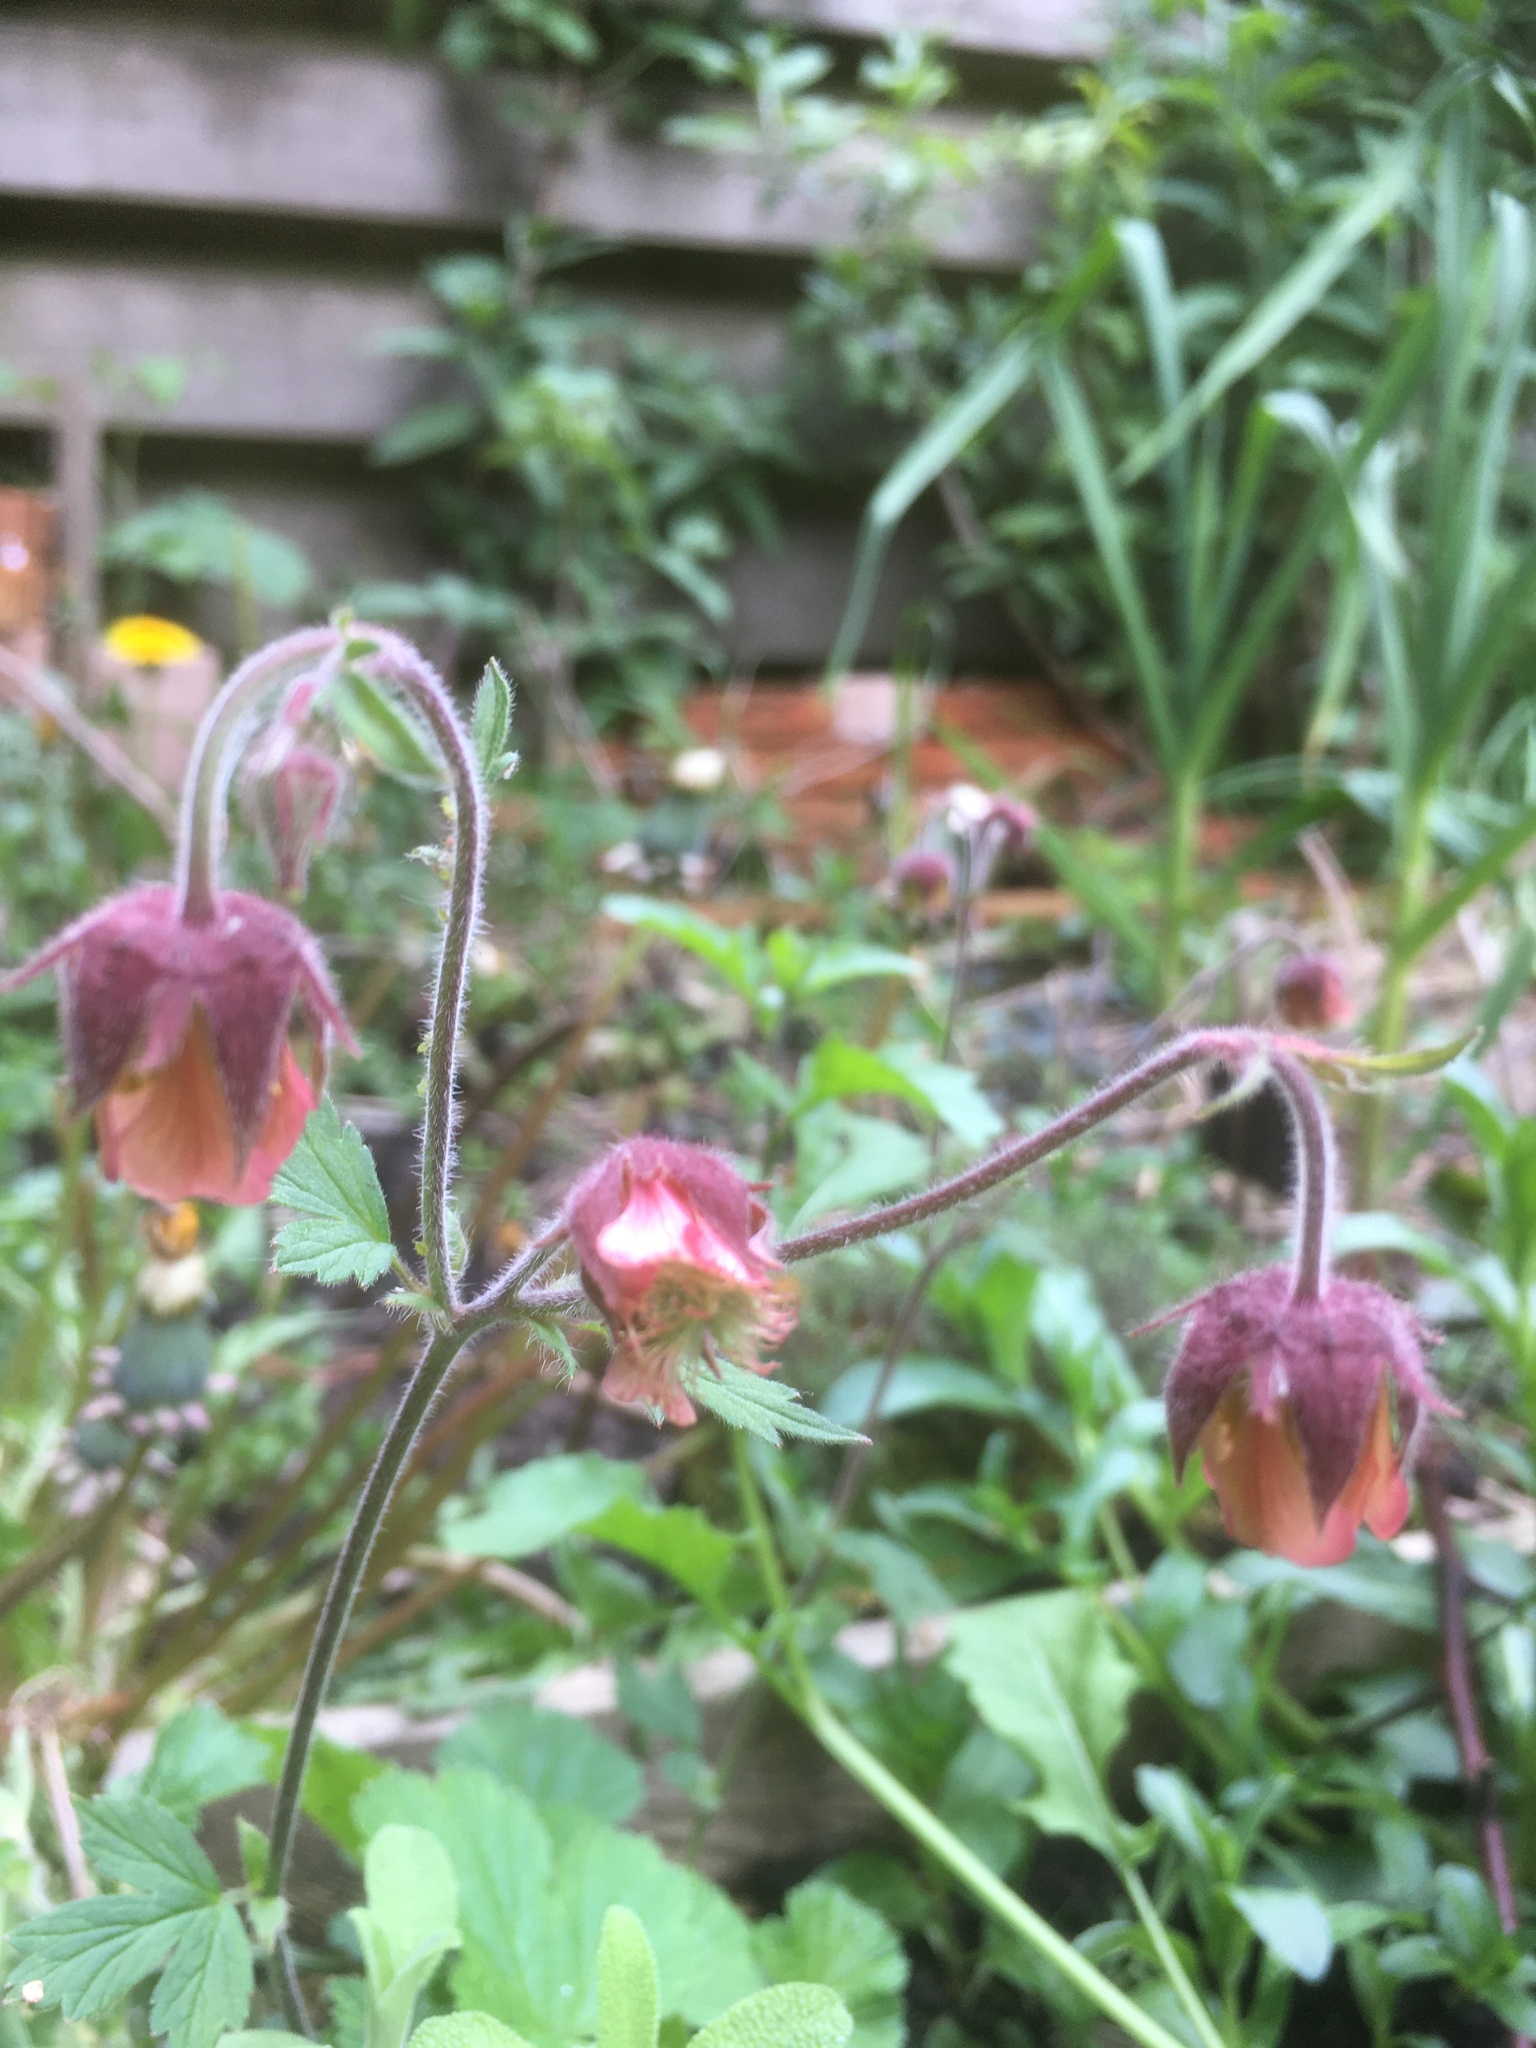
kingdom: Plantae
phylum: Tracheophyta
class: Magnoliopsida
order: Rosales
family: Rosaceae
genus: Geum
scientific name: Geum rivale
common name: Water avens
